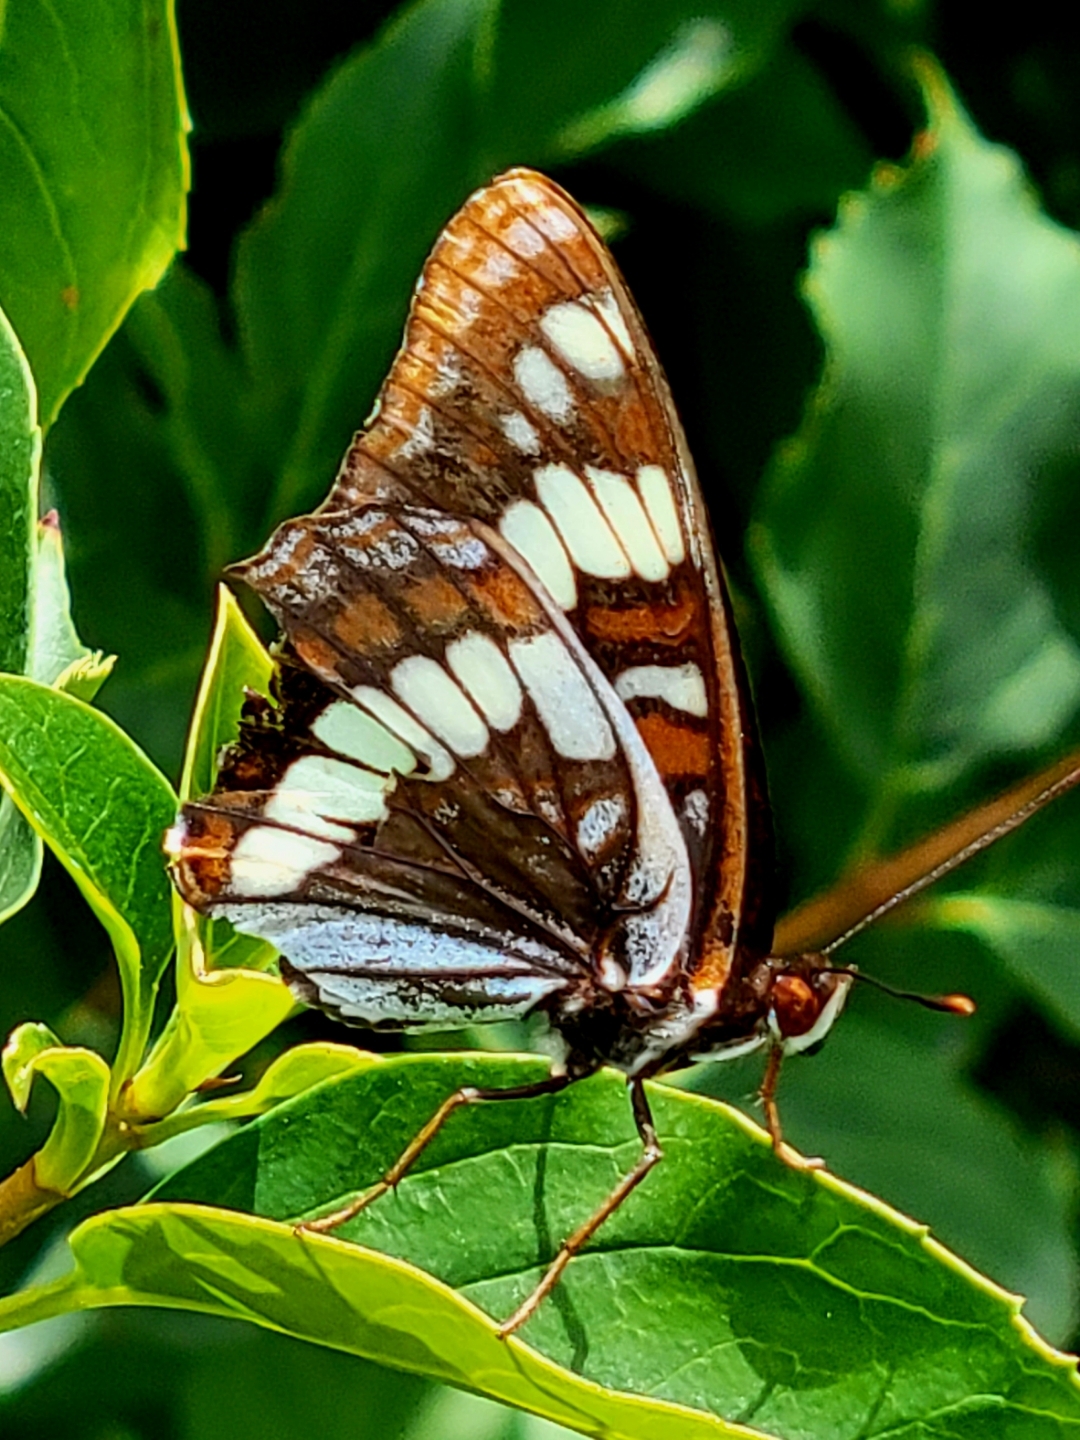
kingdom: Animalia
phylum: Arthropoda
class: Insecta
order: Lepidoptera
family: Nymphalidae
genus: Limenitis
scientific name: Limenitis lorquini
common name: Lorquin's admiral
